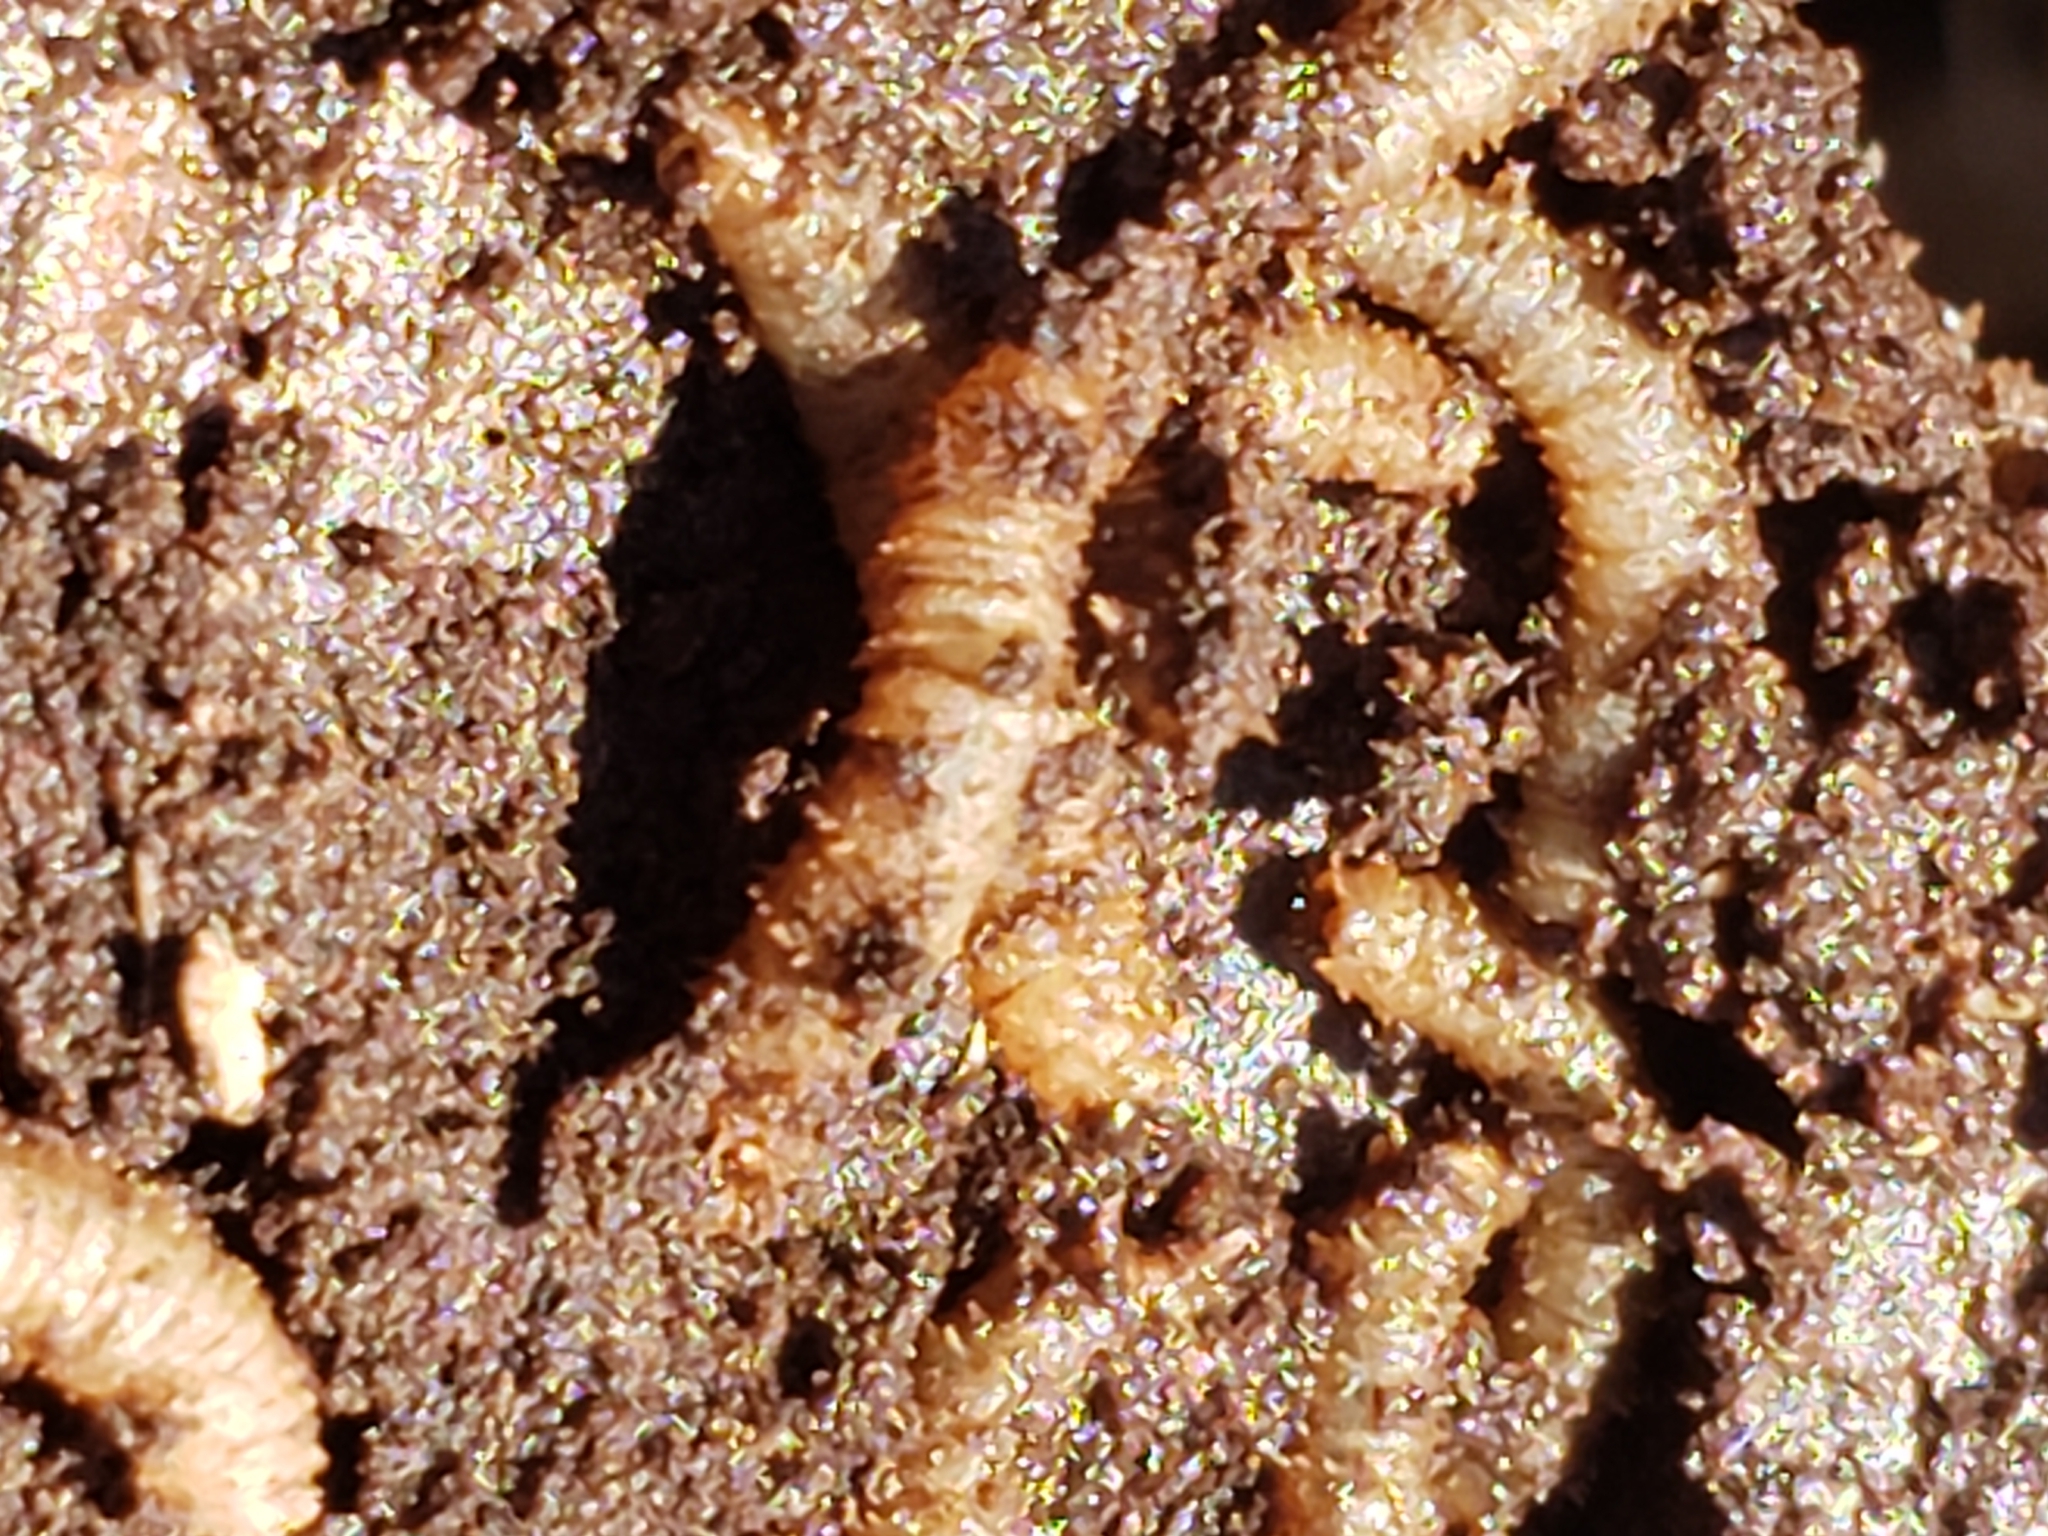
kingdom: Animalia
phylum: Arthropoda
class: Insecta
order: Diptera
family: Bibionidae
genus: Bibio
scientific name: Bibio
